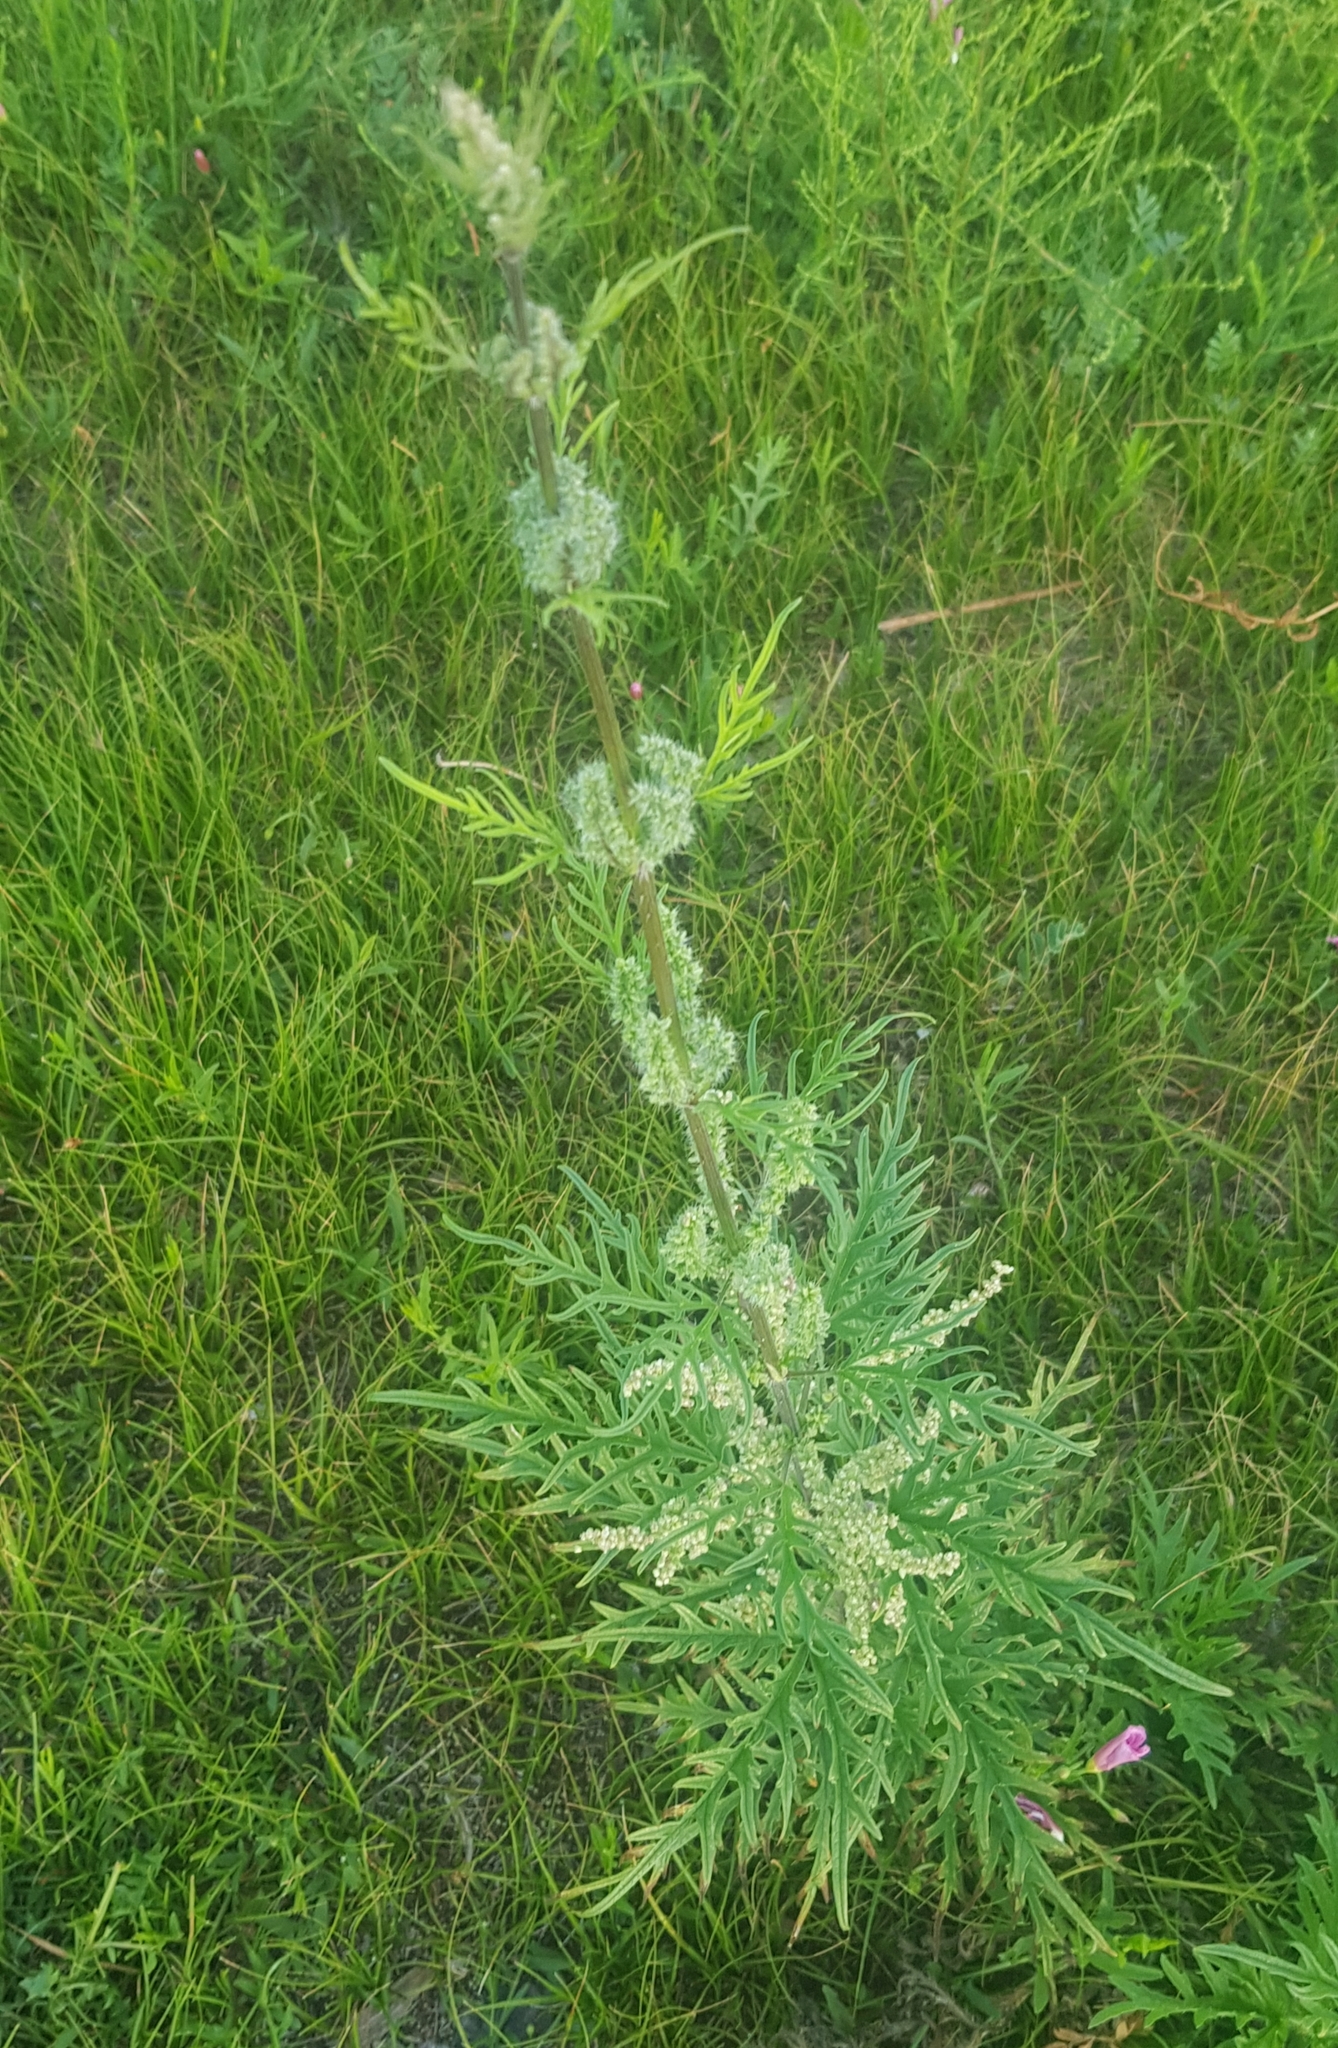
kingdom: Plantae
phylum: Tracheophyta
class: Magnoliopsida
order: Rosales
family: Urticaceae
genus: Urtica
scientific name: Urtica cannabina
